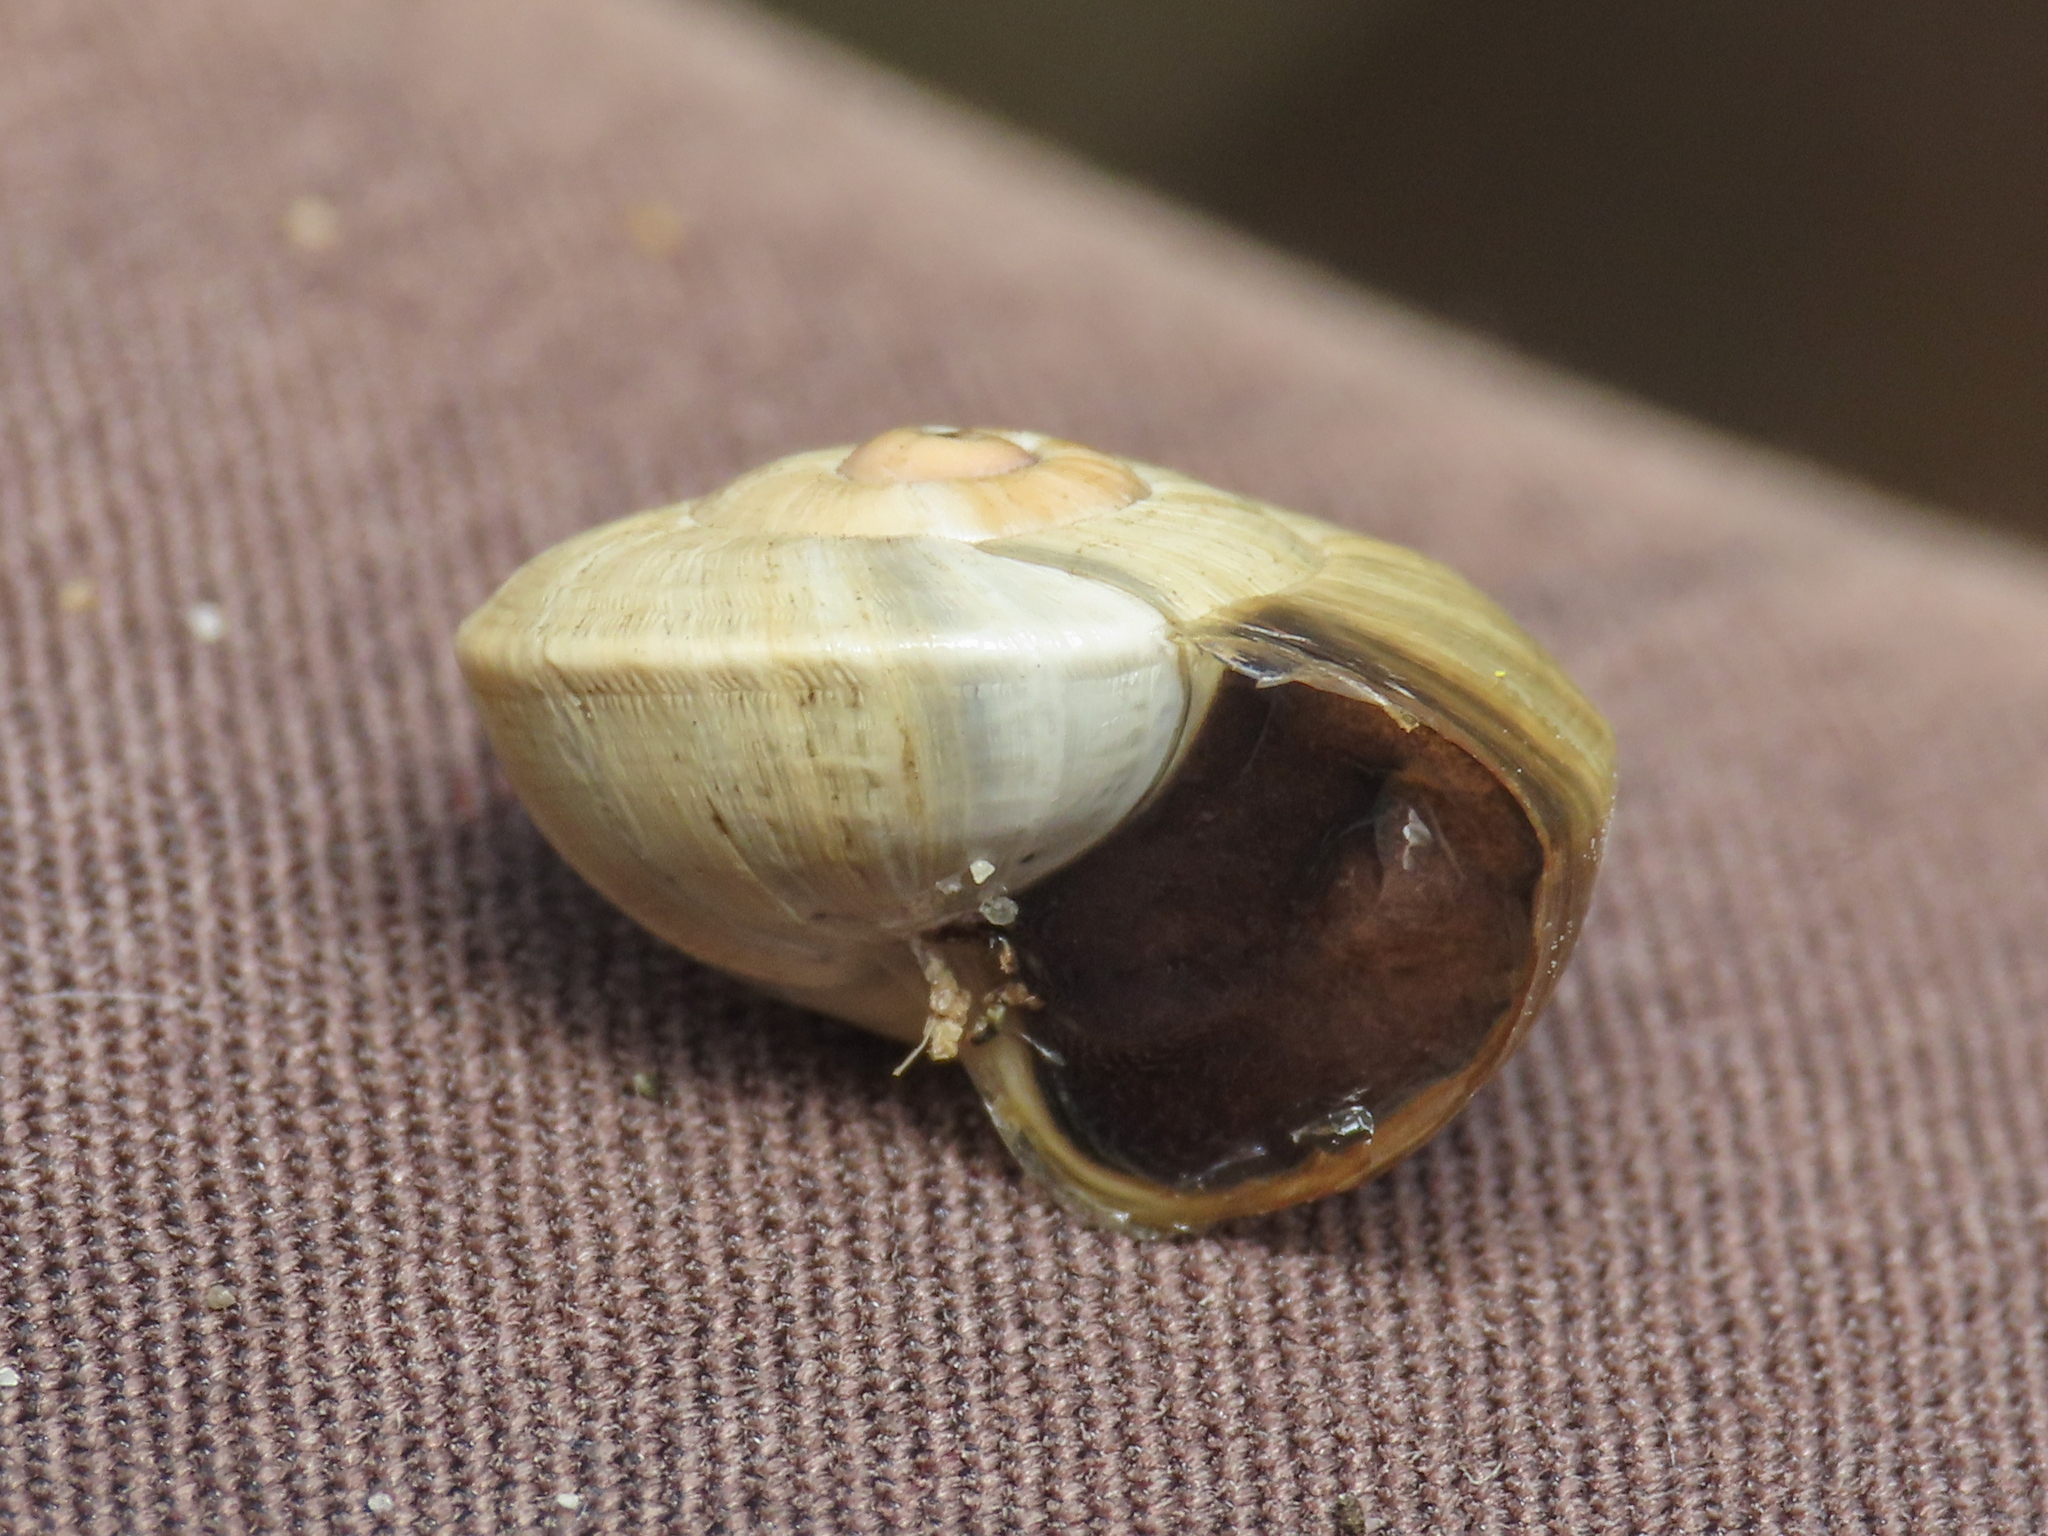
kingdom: Animalia
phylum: Mollusca
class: Gastropoda
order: Stylommatophora
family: Helicidae
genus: Theba
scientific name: Theba pisana
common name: White snail
